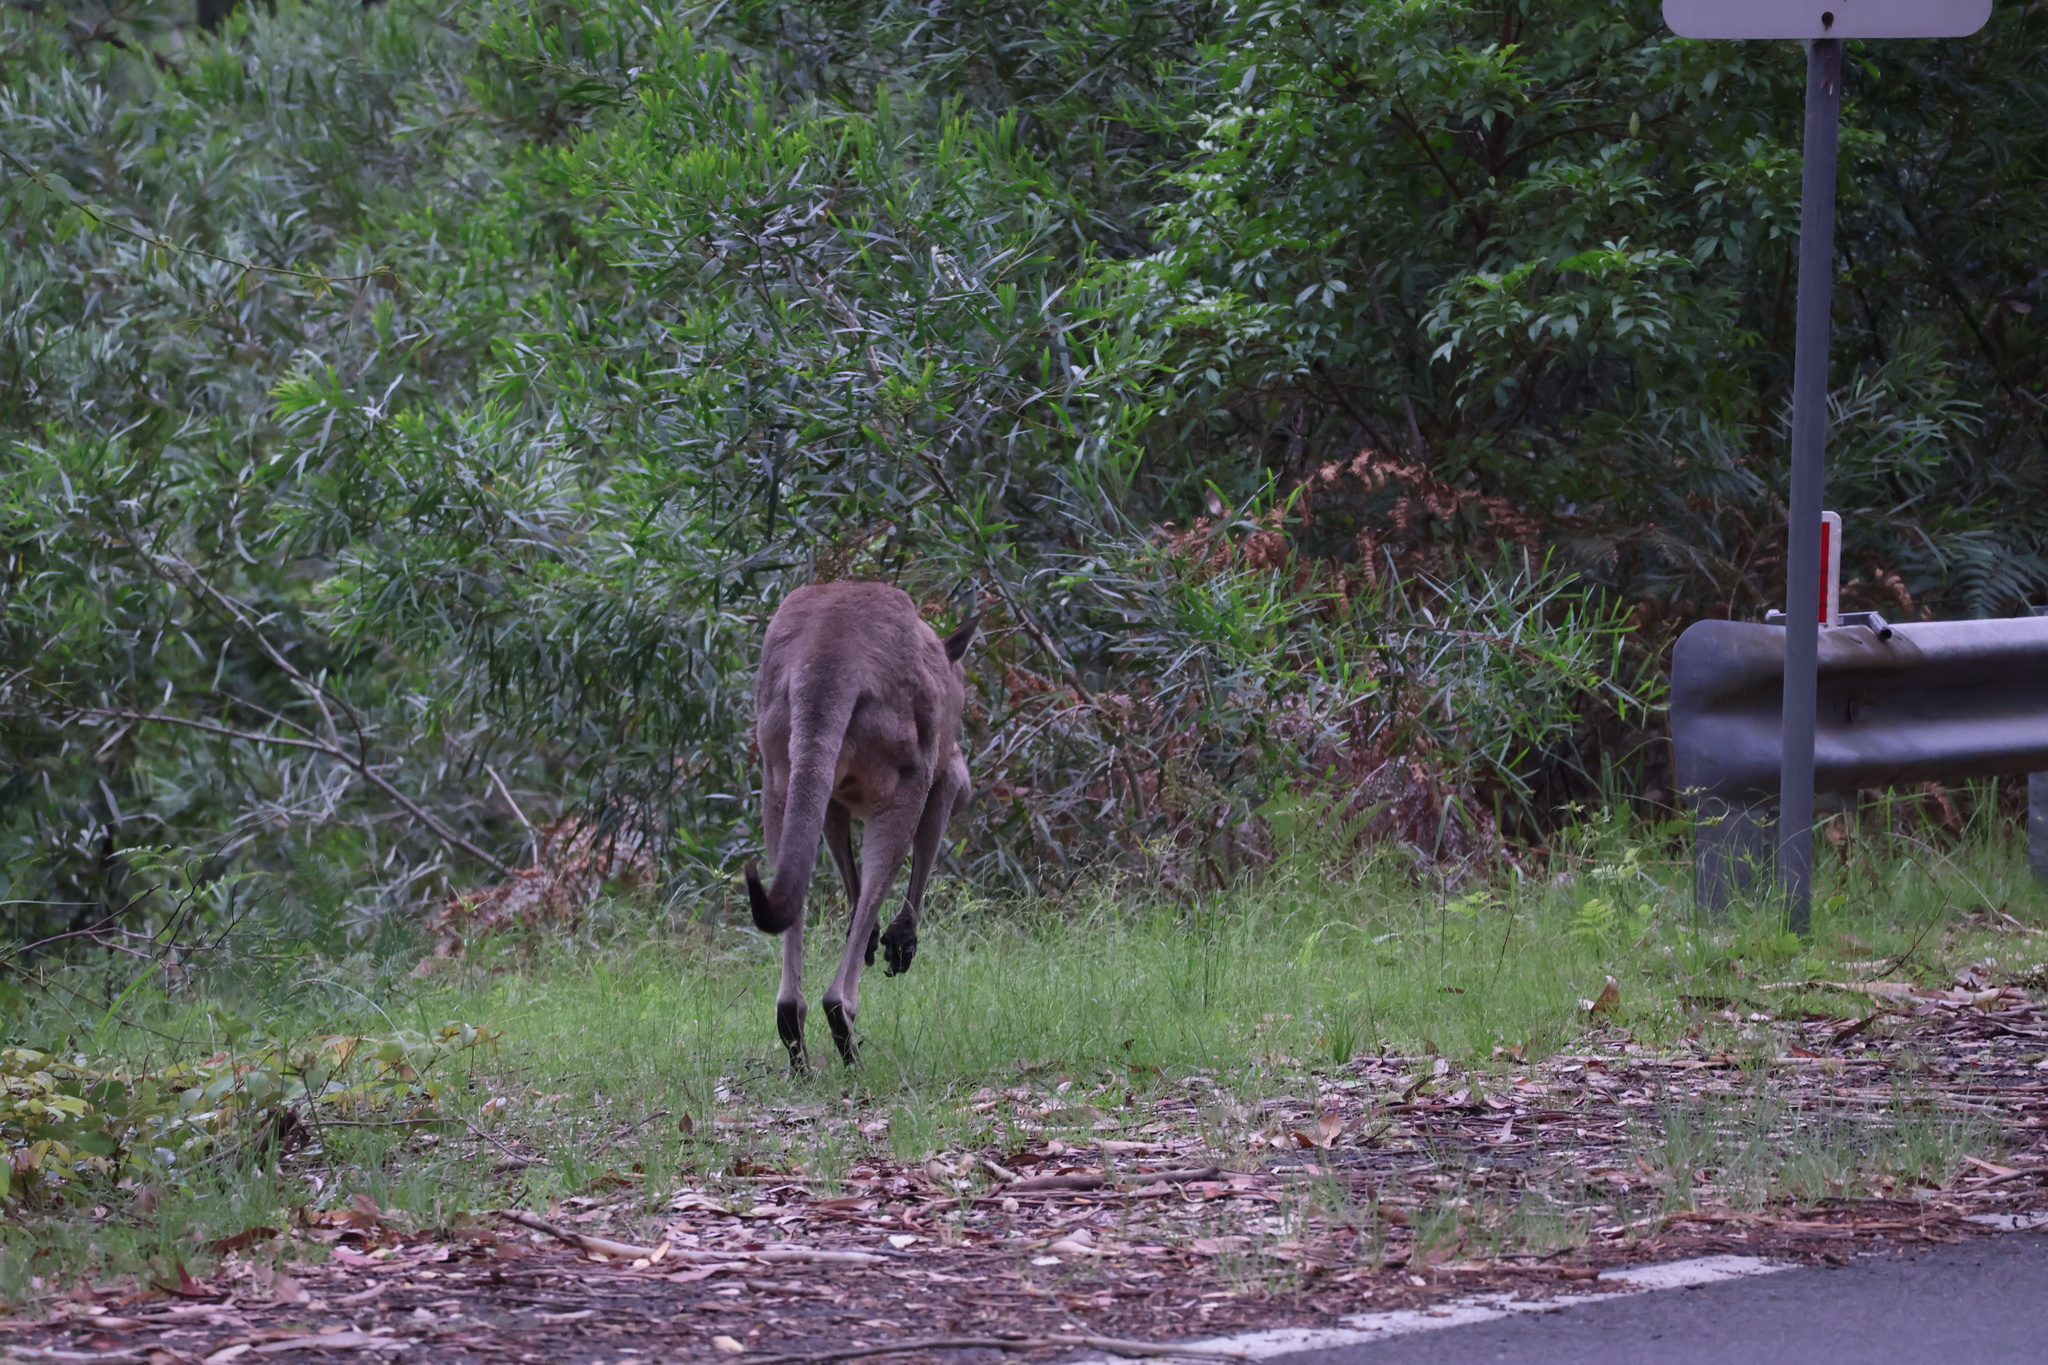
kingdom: Animalia
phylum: Chordata
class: Mammalia
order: Diprotodontia
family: Macropodidae
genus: Macropus
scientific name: Macropus giganteus
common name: Eastern grey kangaroo
